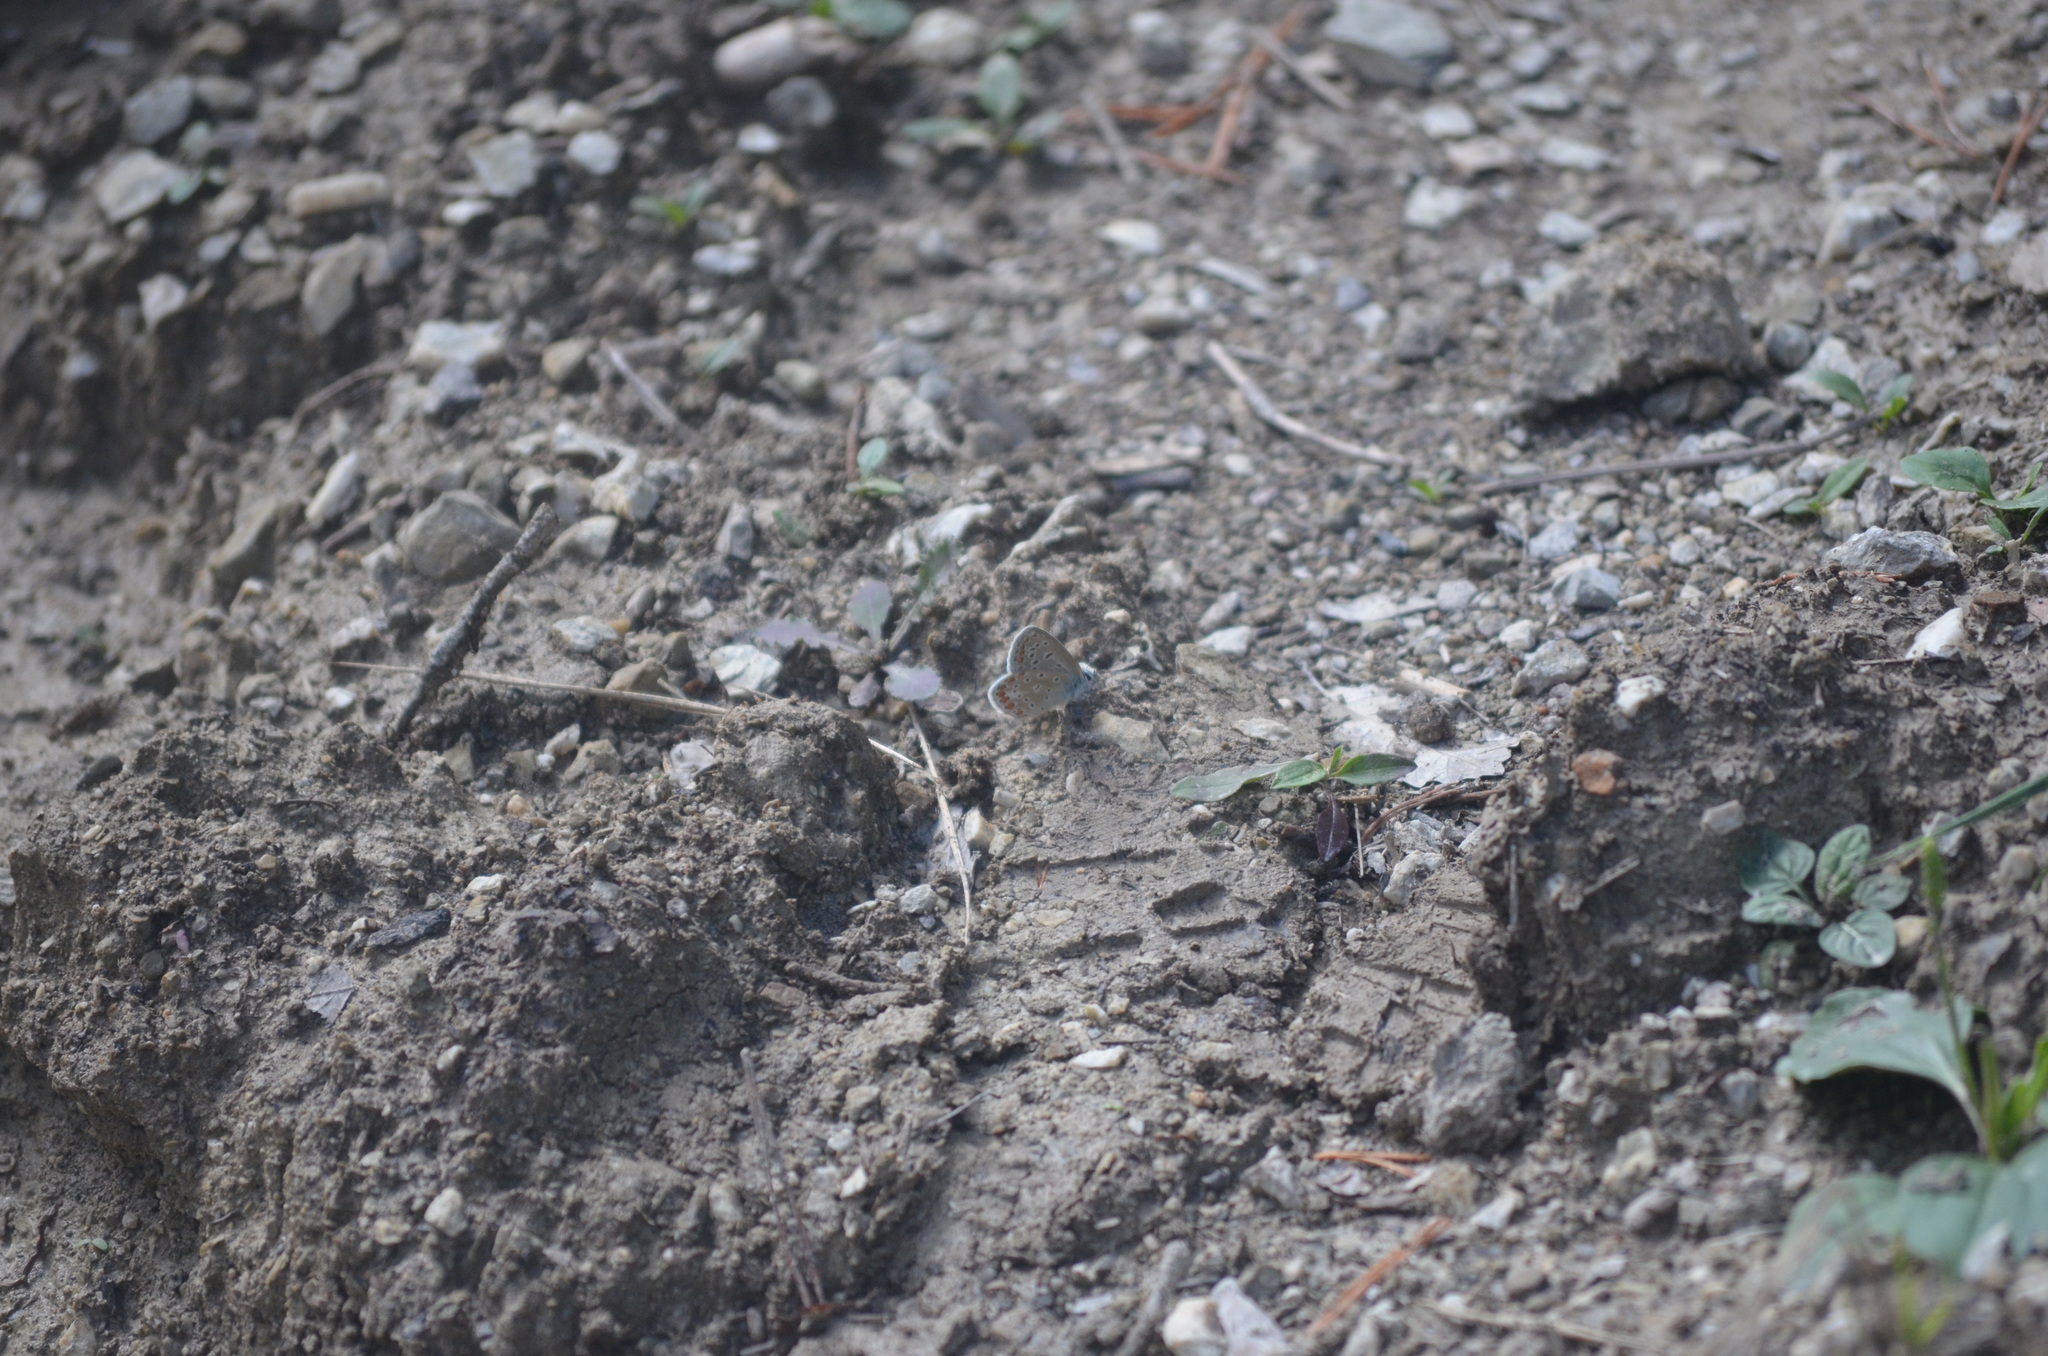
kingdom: Animalia
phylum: Arthropoda
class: Insecta
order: Lepidoptera
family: Lycaenidae
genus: Polyommatus
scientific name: Polyommatus icarus
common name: Common blue
